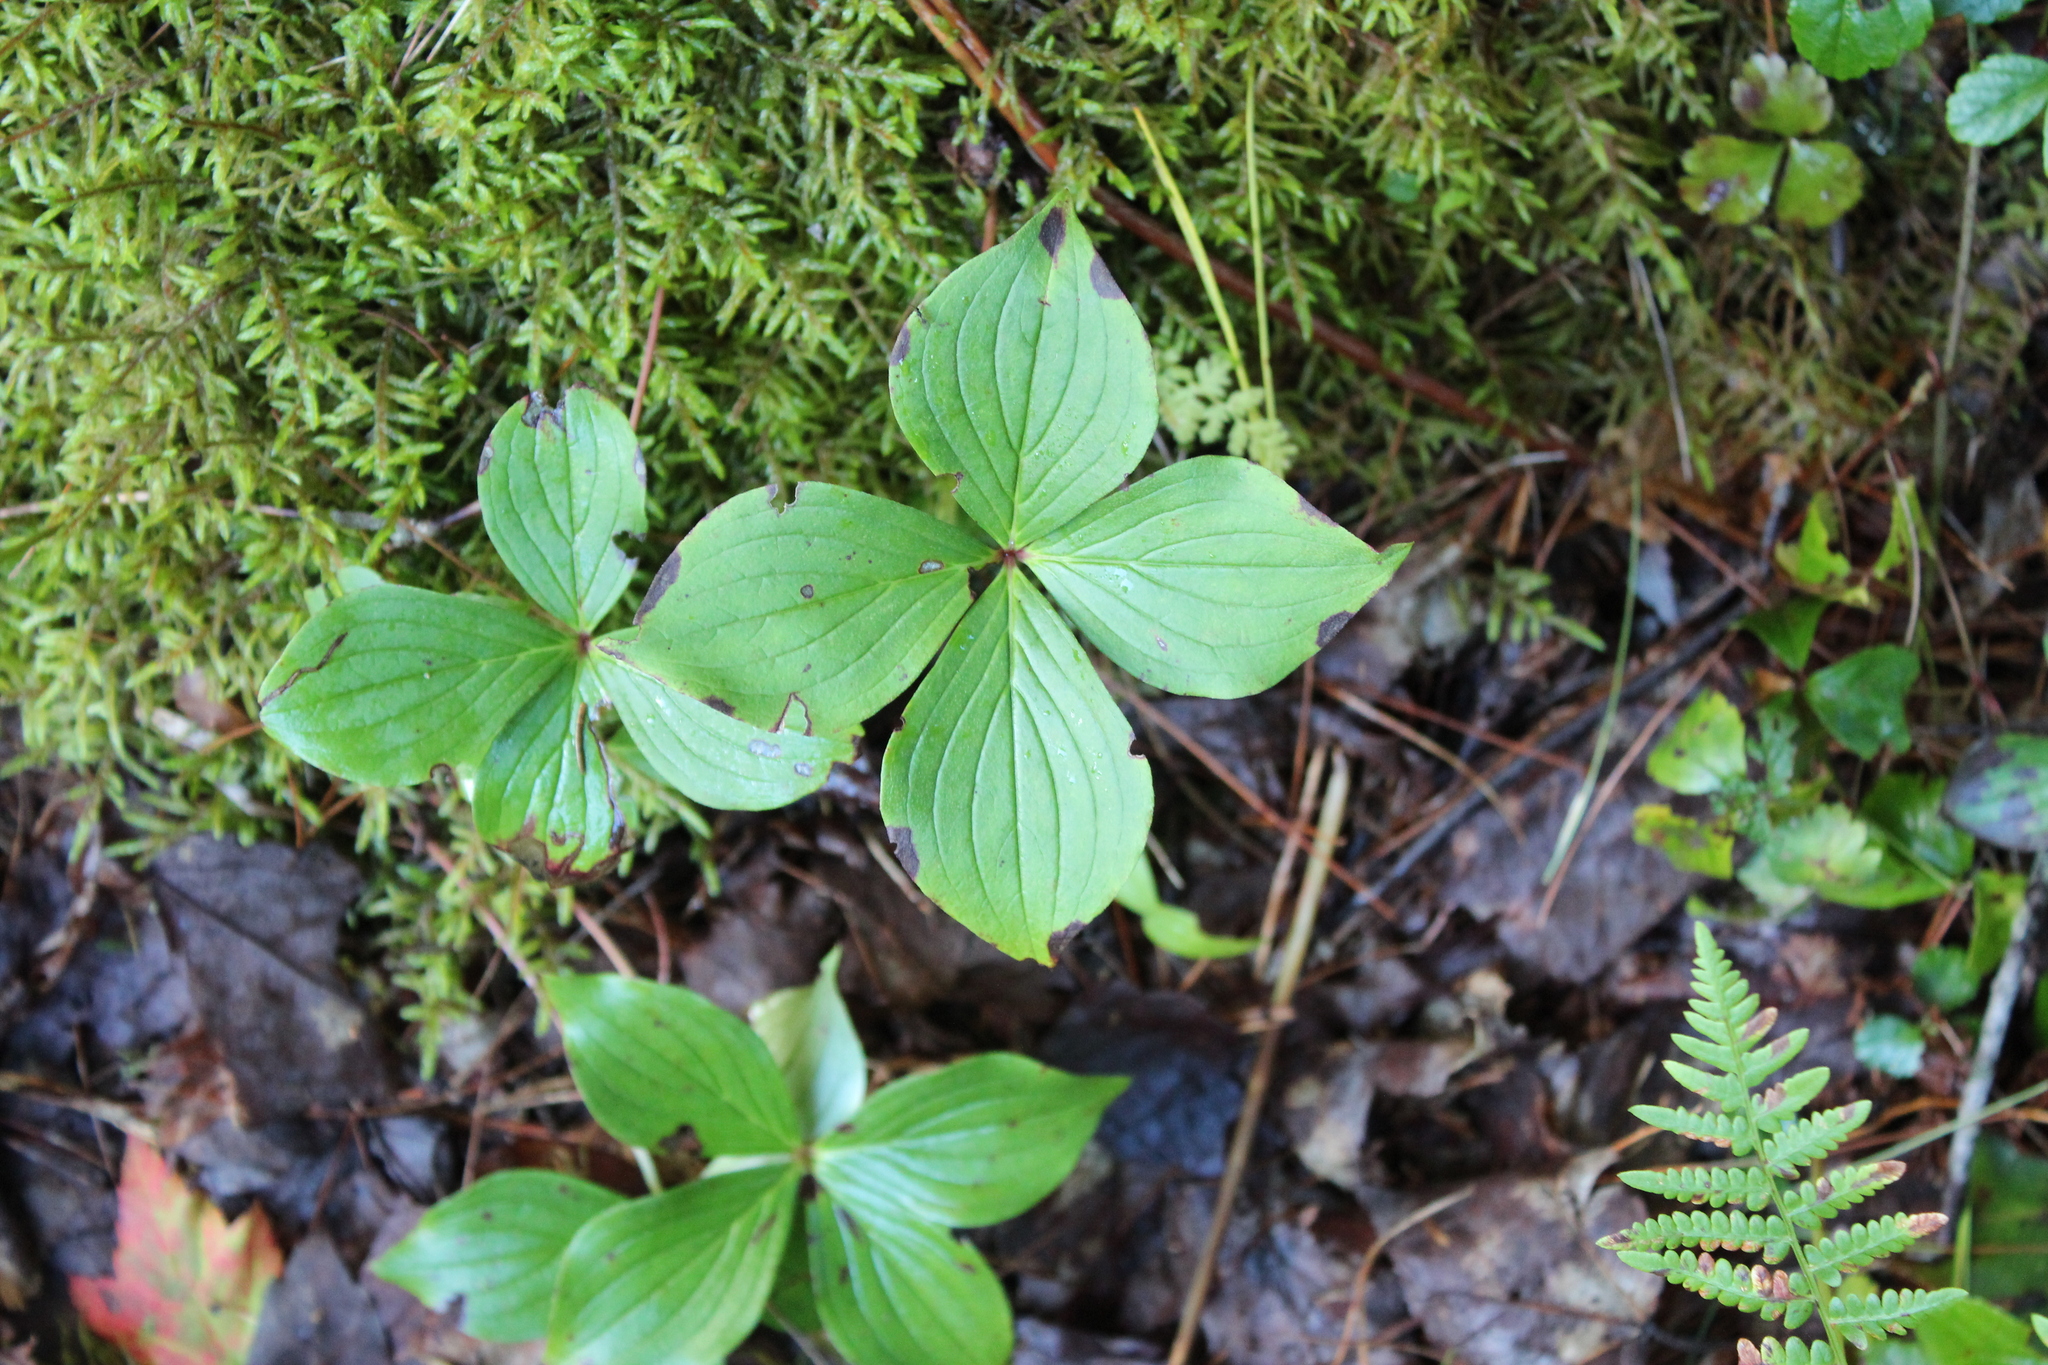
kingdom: Plantae
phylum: Tracheophyta
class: Magnoliopsida
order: Cornales
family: Cornaceae
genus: Cornus
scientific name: Cornus canadensis
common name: Creeping dogwood
